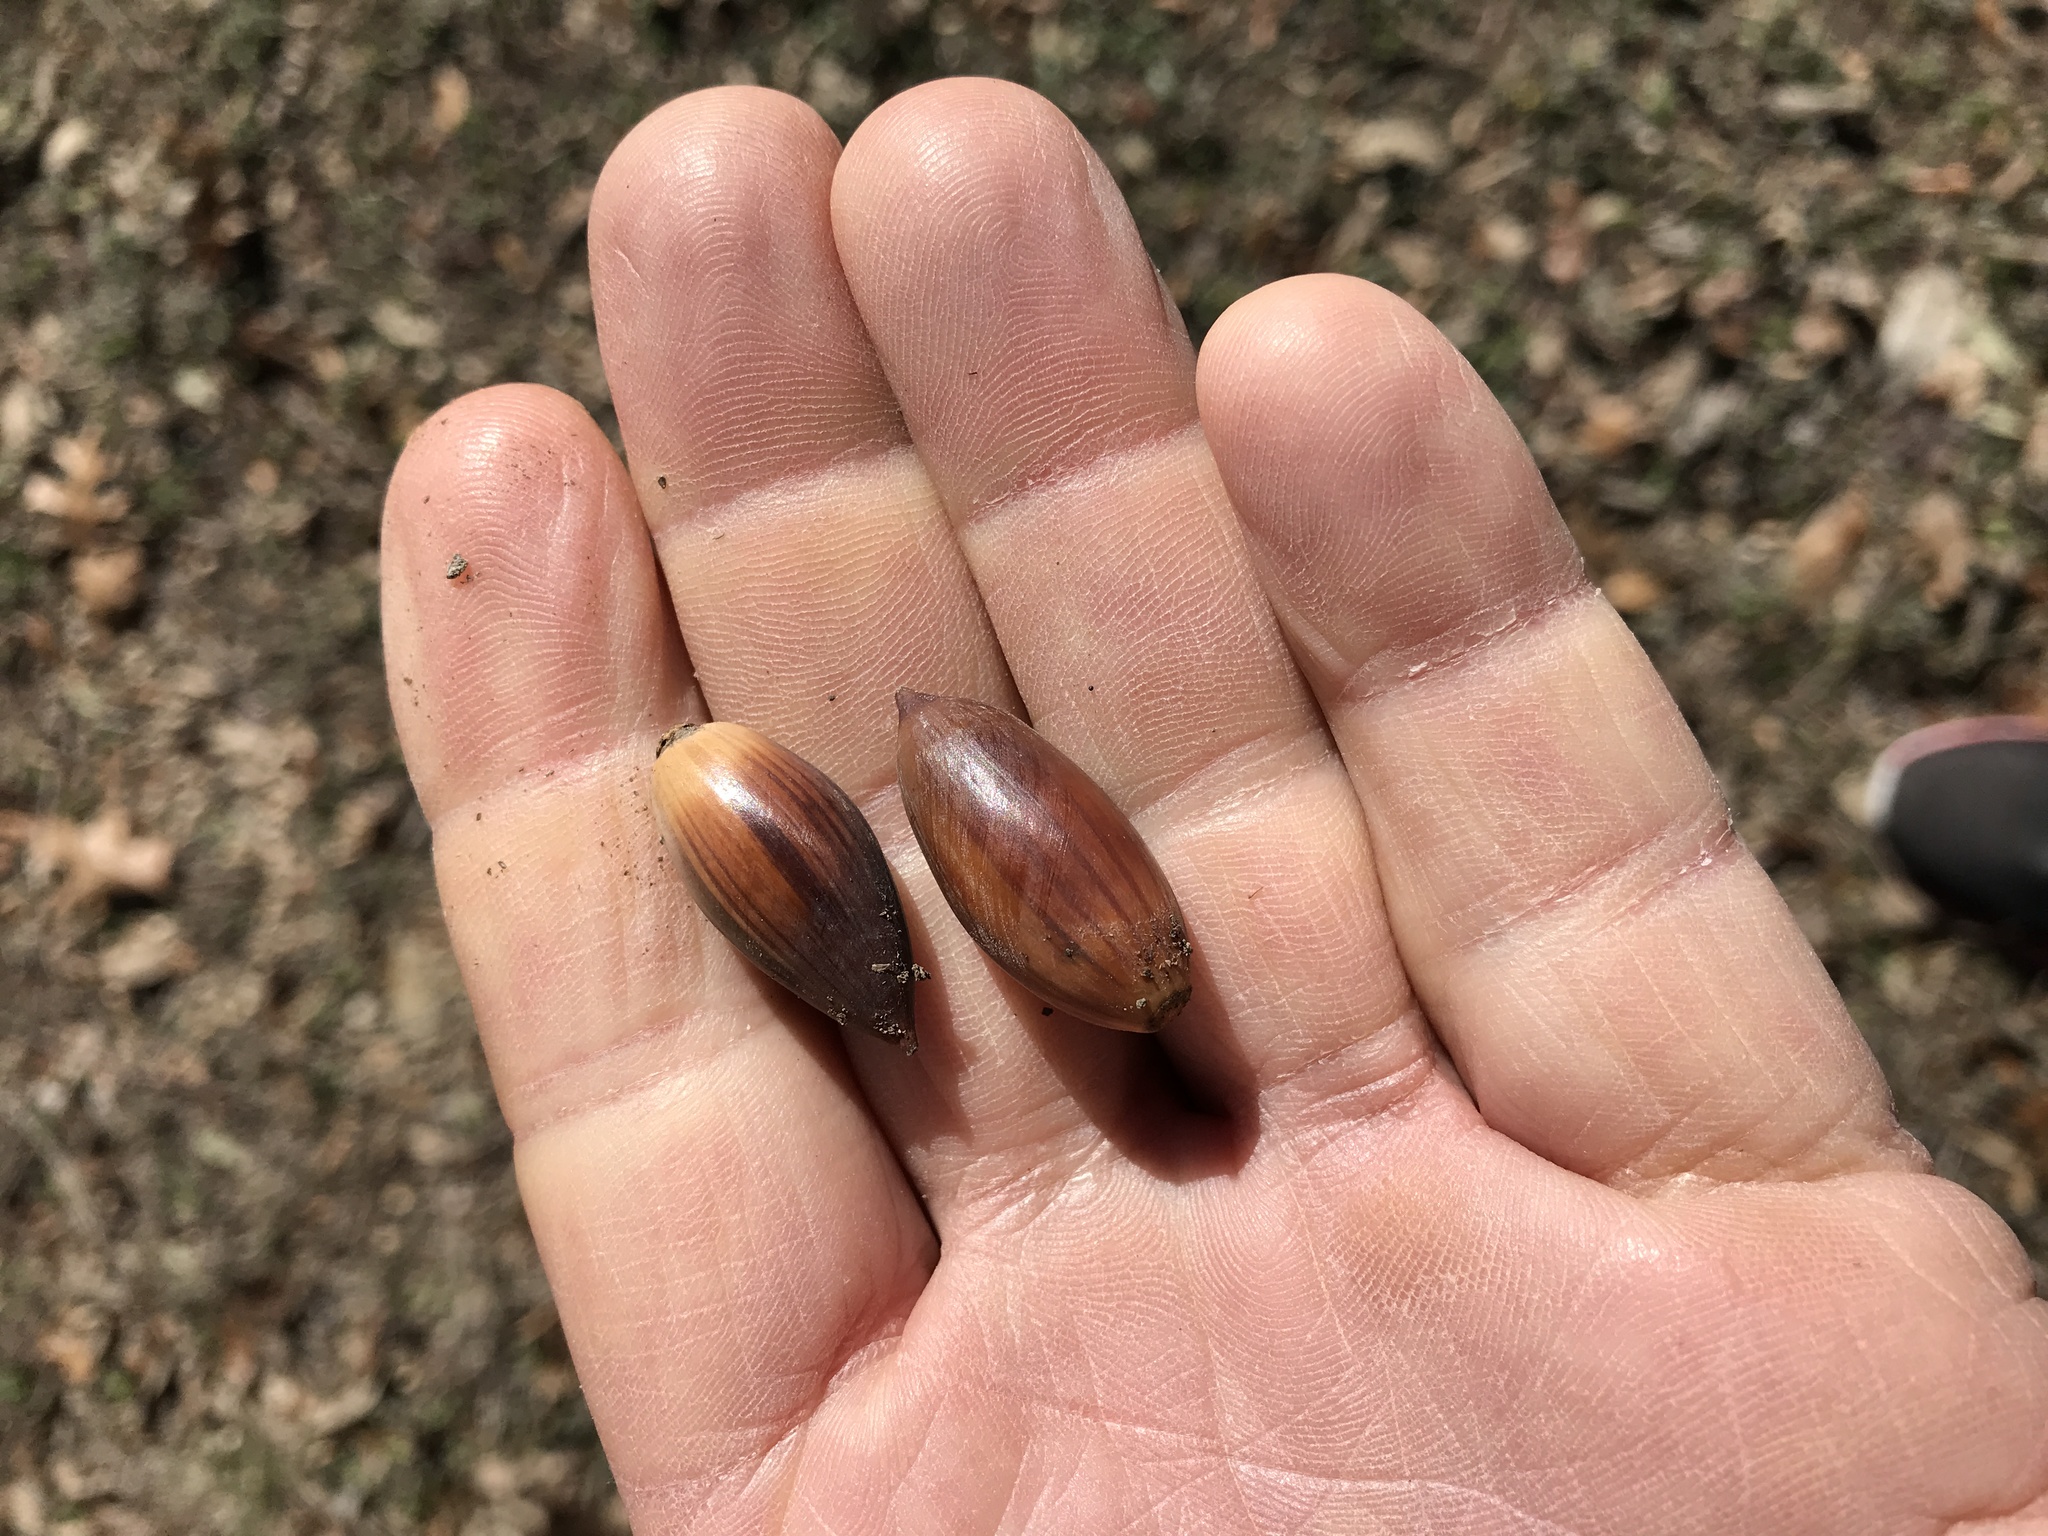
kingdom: Plantae
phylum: Tracheophyta
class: Magnoliopsida
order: Fagales
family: Fagaceae
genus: Quercus
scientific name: Quercus fusiformis
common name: Texas live oak
